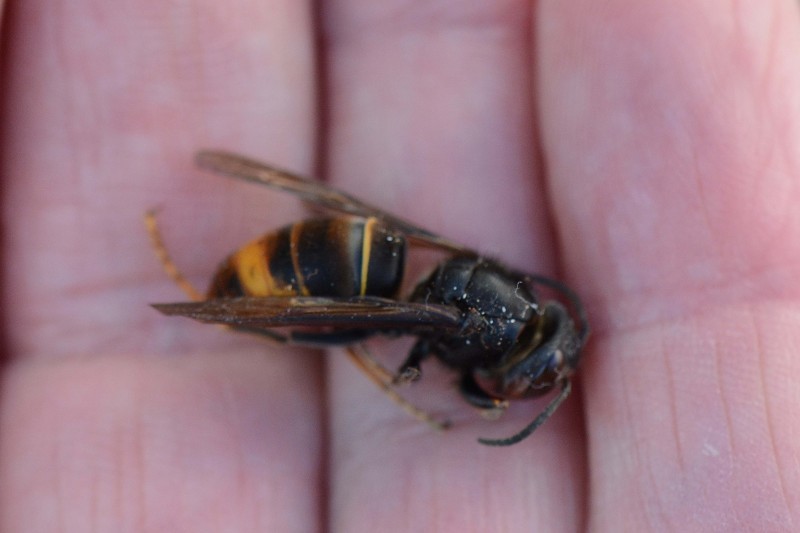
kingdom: Animalia
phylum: Arthropoda
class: Insecta
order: Hymenoptera
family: Vespidae
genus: Vespa
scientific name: Vespa velutina
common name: Asian hornet
